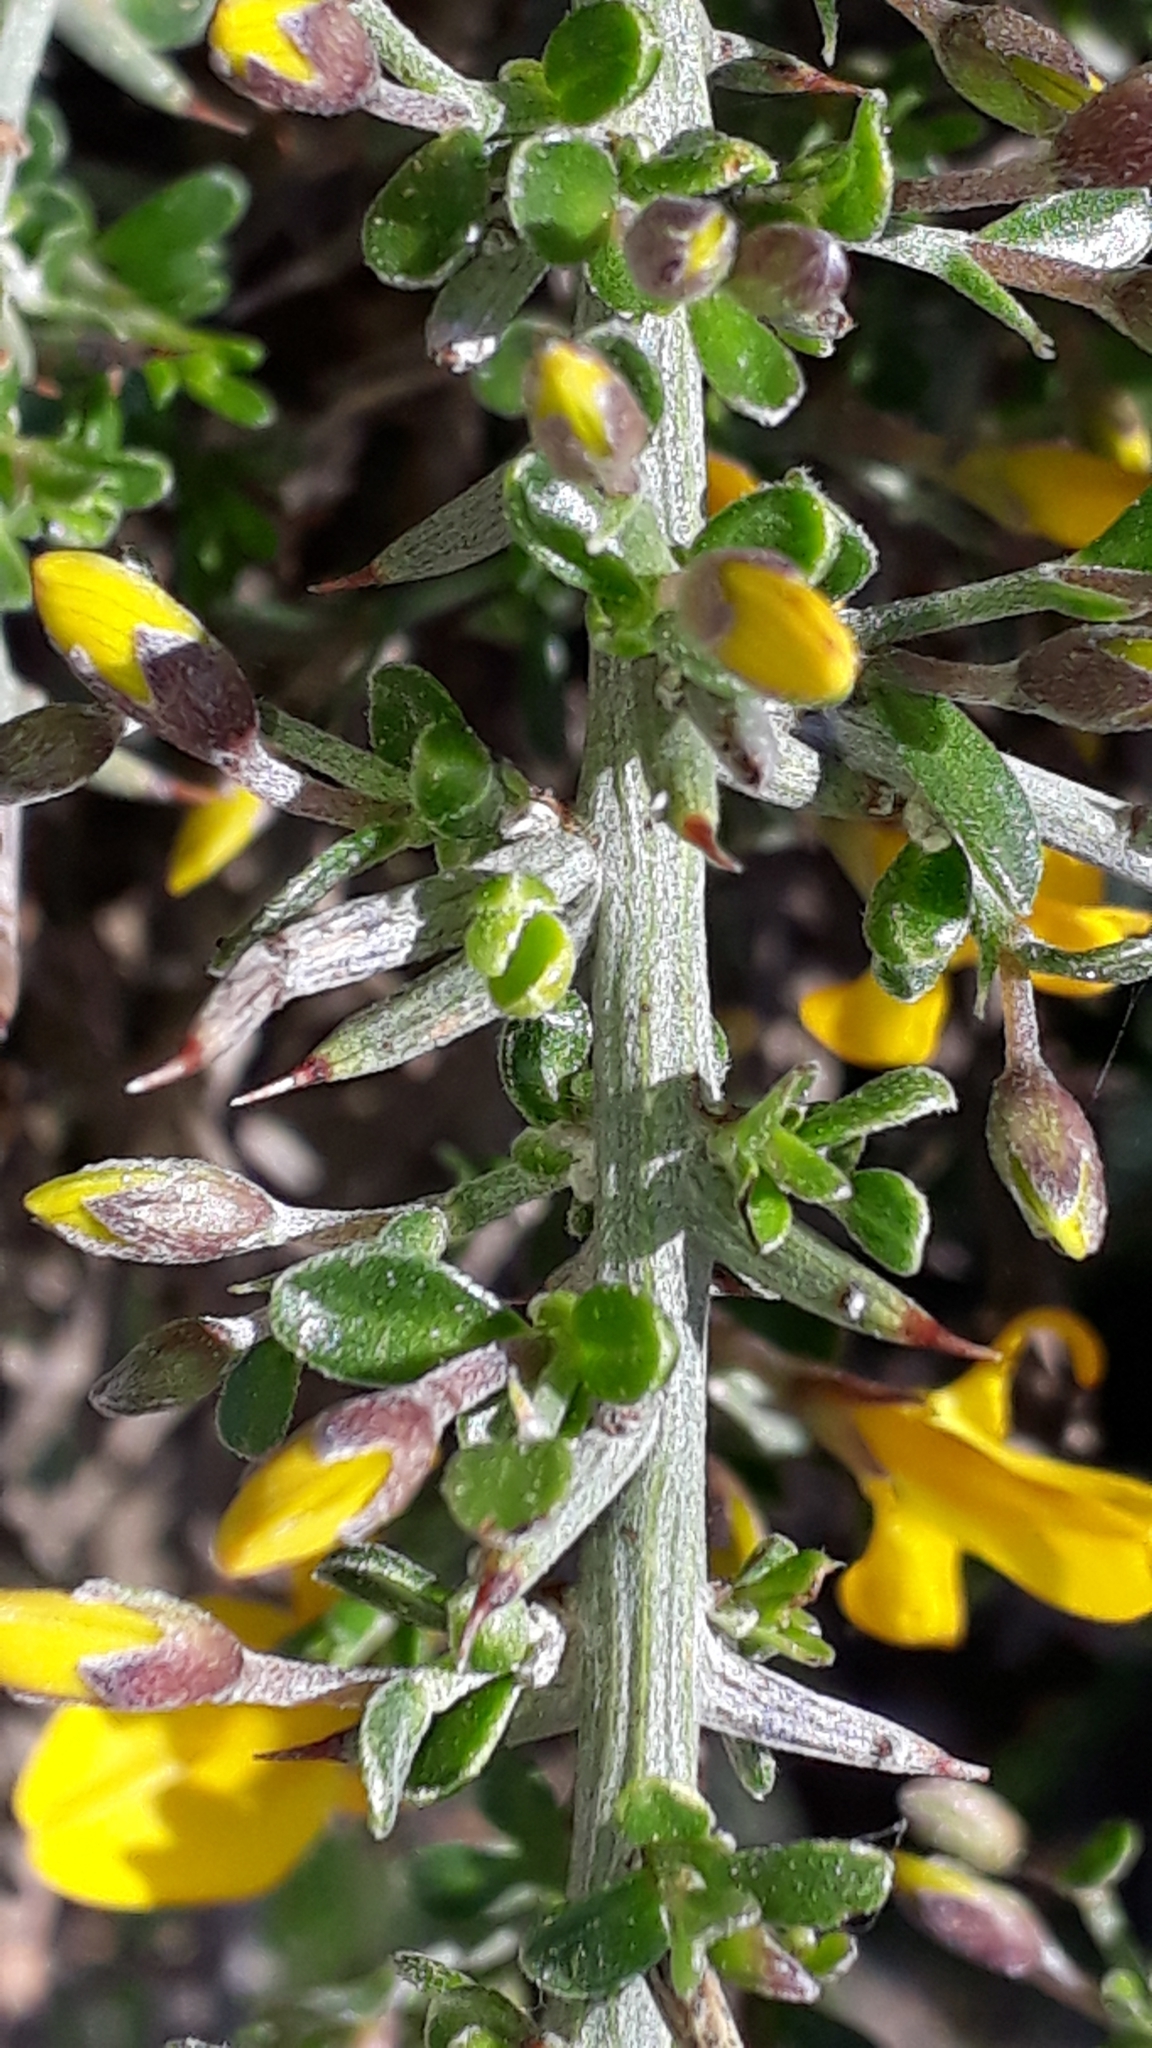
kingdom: Plantae
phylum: Tracheophyta
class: Magnoliopsida
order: Fabales
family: Fabaceae
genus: Genista
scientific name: Genista corsica
